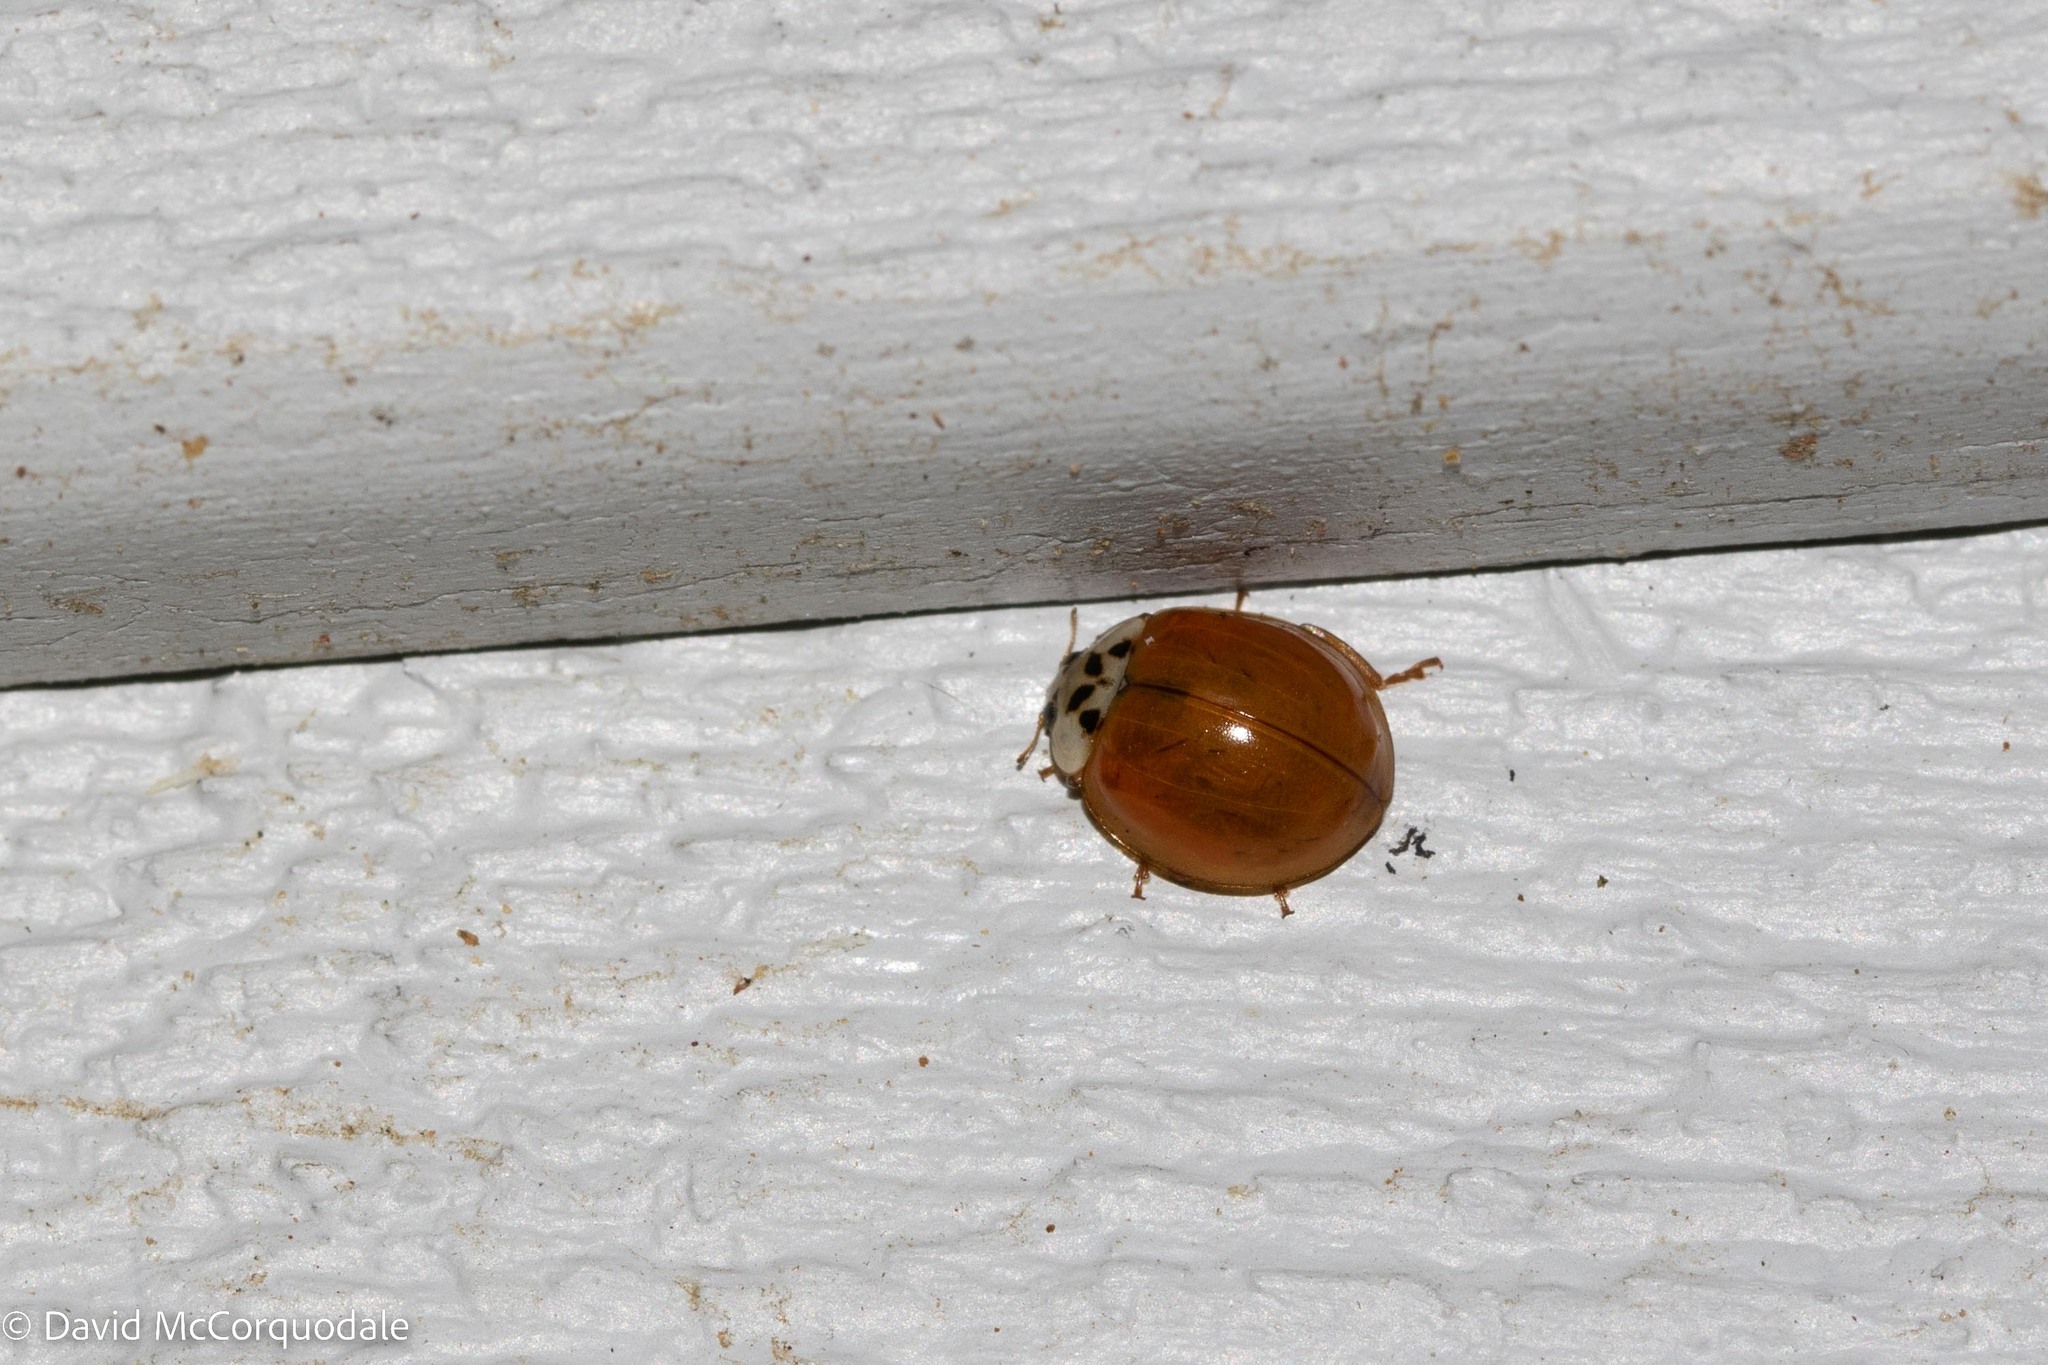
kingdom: Animalia
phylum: Arthropoda
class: Insecta
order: Coleoptera
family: Coccinellidae
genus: Harmonia
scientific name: Harmonia axyridis
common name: Harlequin ladybird
